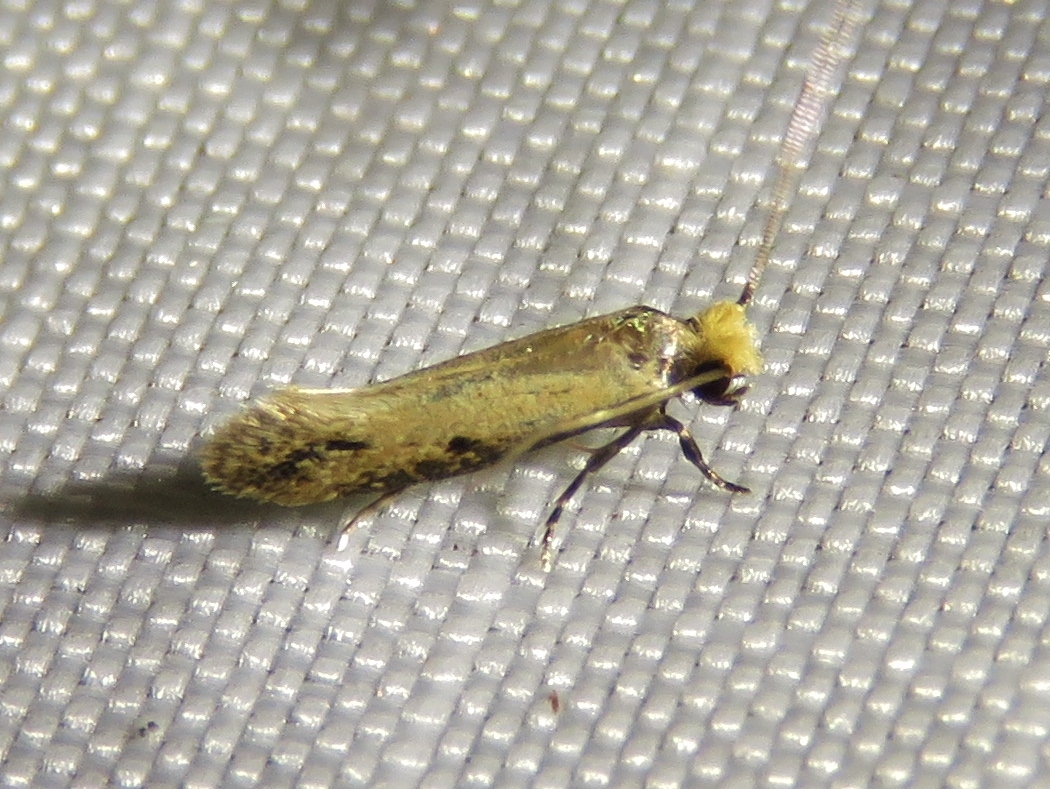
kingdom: Animalia
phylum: Arthropoda
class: Insecta
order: Lepidoptera
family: Meessiidae
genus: Homostinea
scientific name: Homostinea curviliniella
